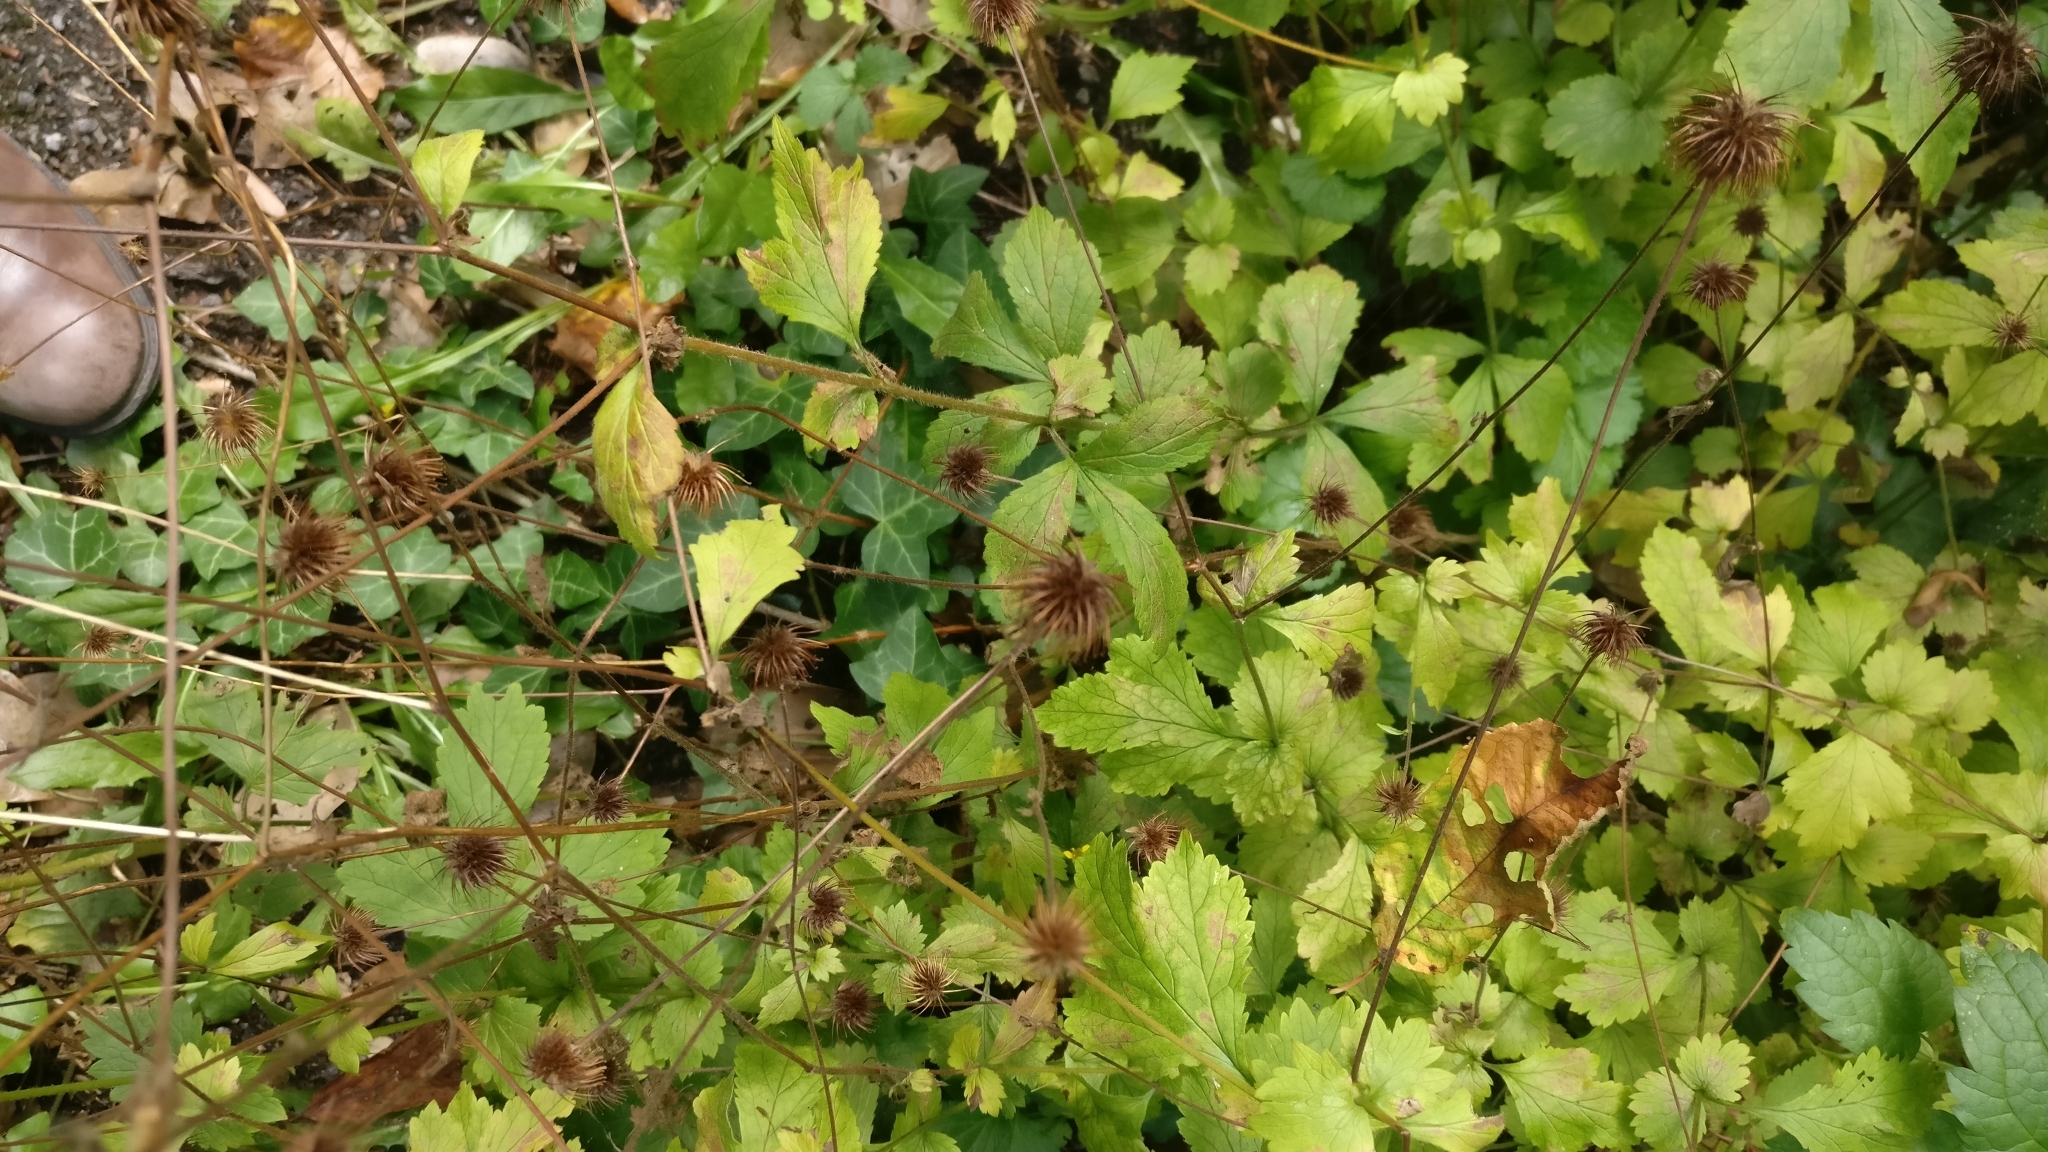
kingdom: Plantae
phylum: Tracheophyta
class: Magnoliopsida
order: Rosales
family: Rosaceae
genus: Geum
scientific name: Geum urbanum
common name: Wood avens
